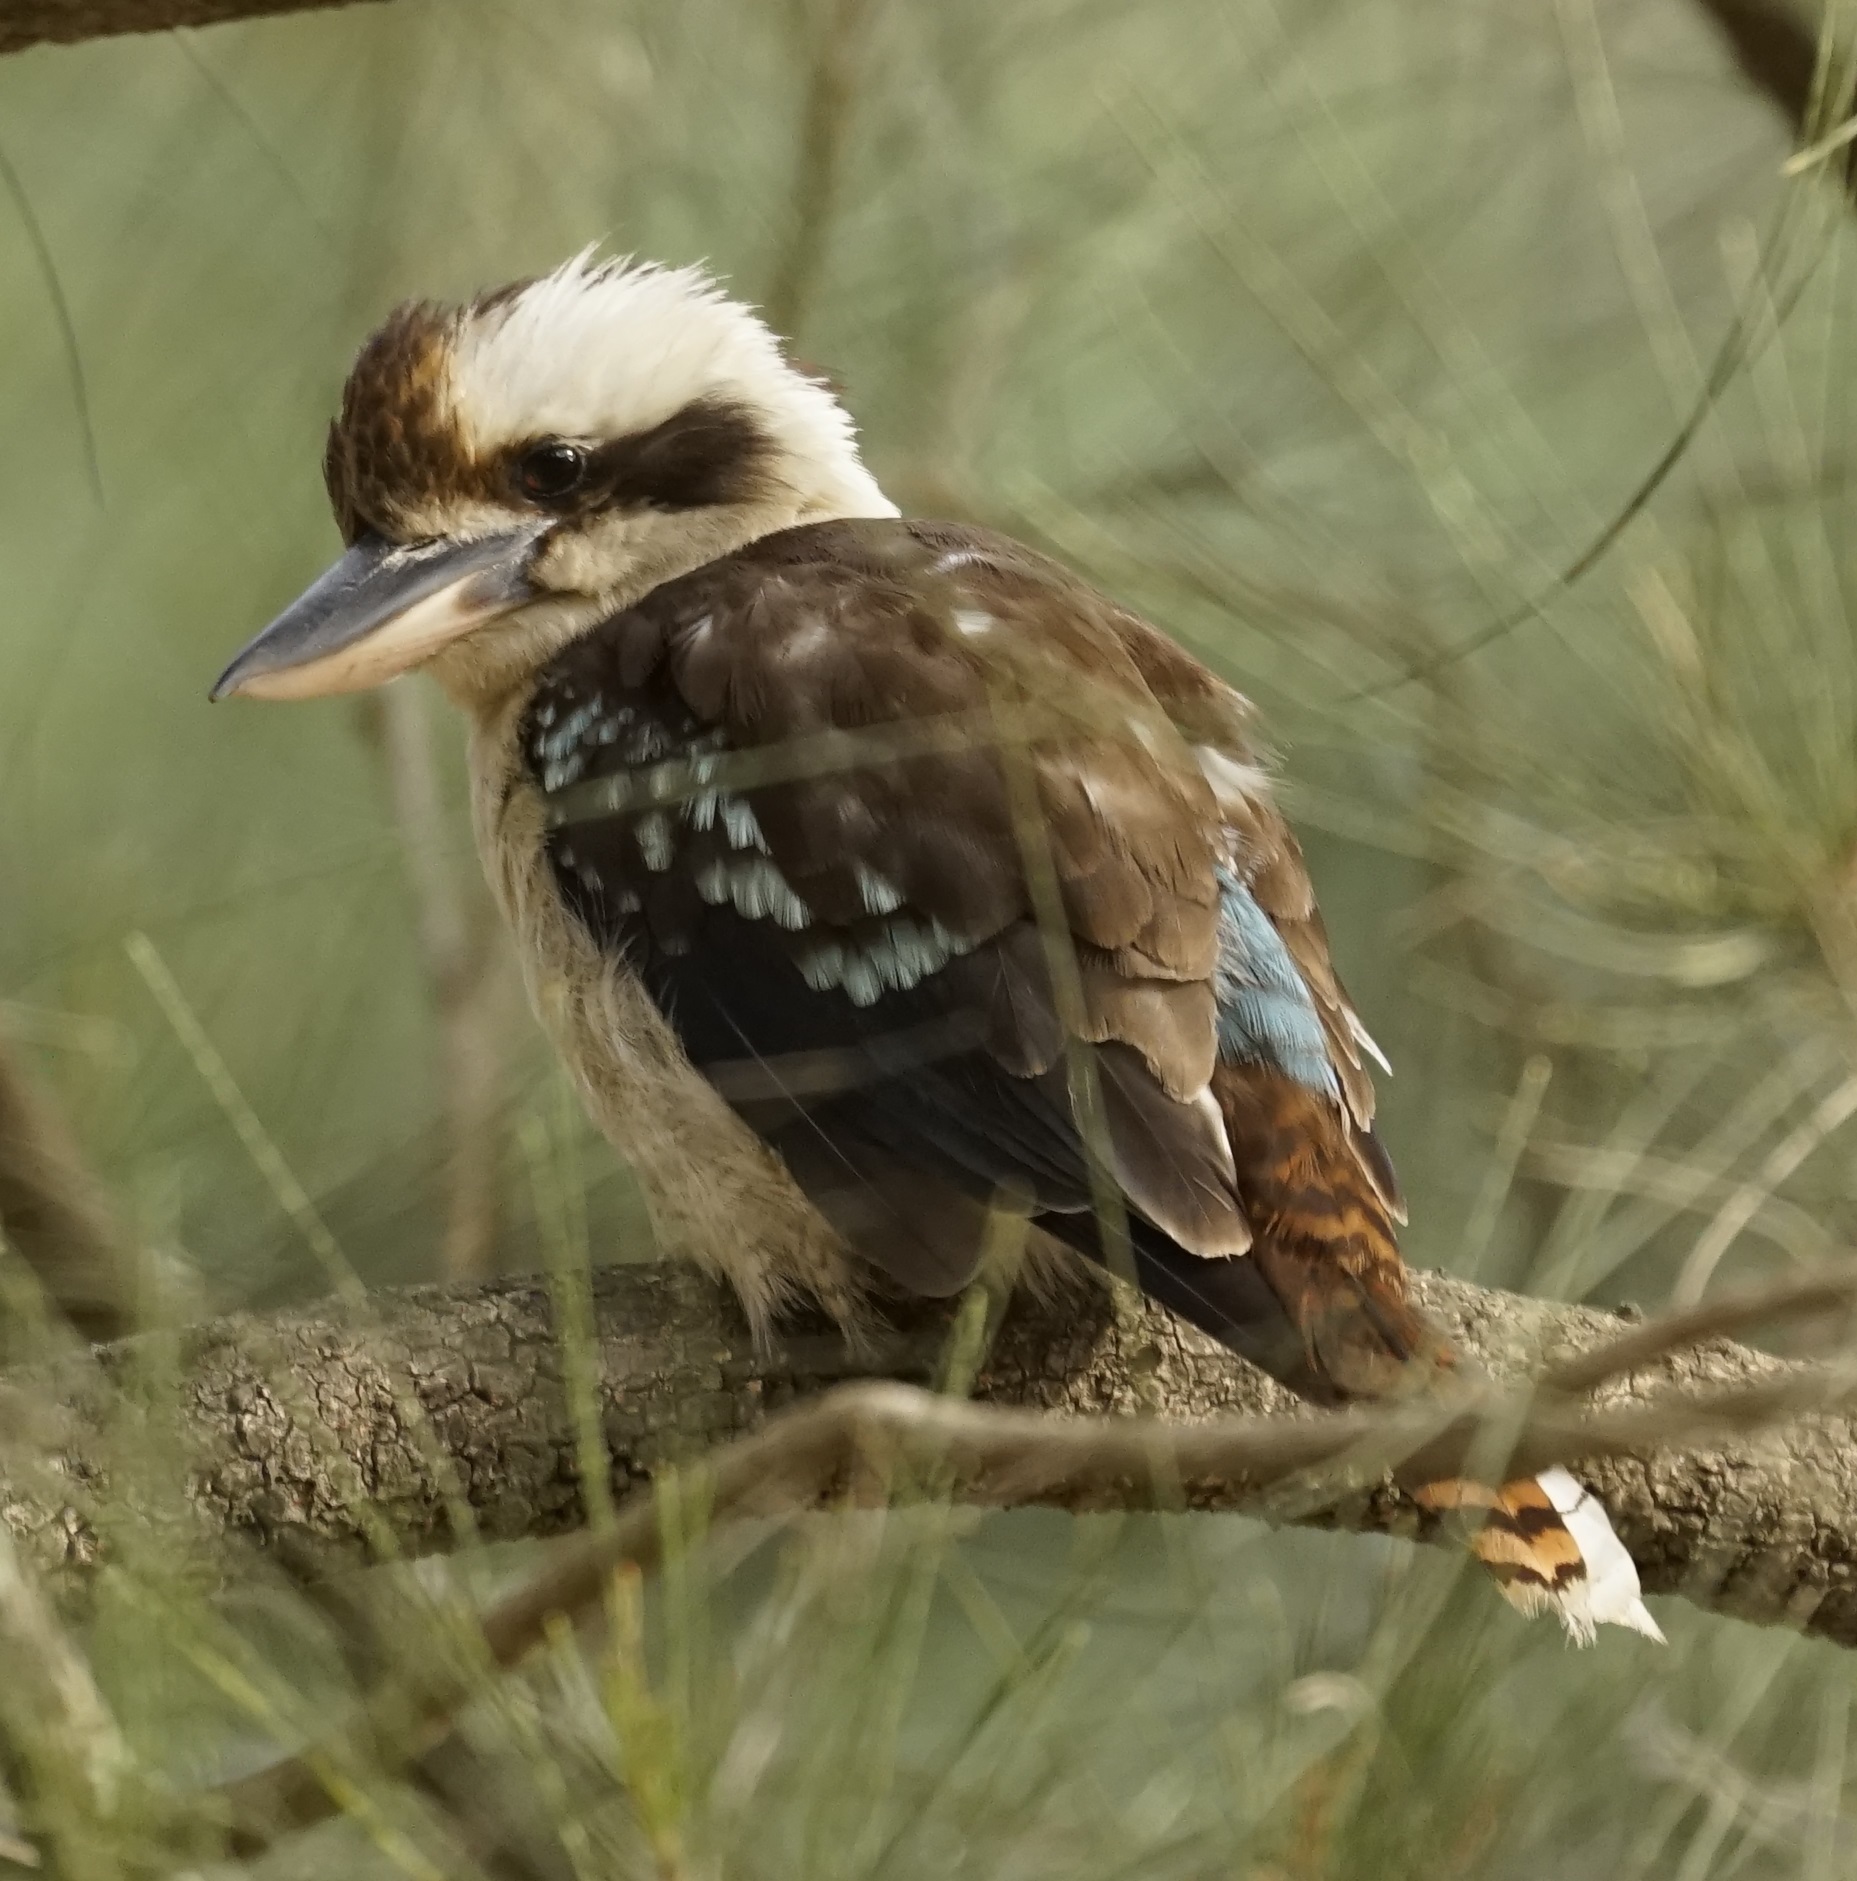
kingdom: Animalia
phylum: Chordata
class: Aves
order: Coraciiformes
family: Alcedinidae
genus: Dacelo
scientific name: Dacelo novaeguineae
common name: Laughing kookaburra
